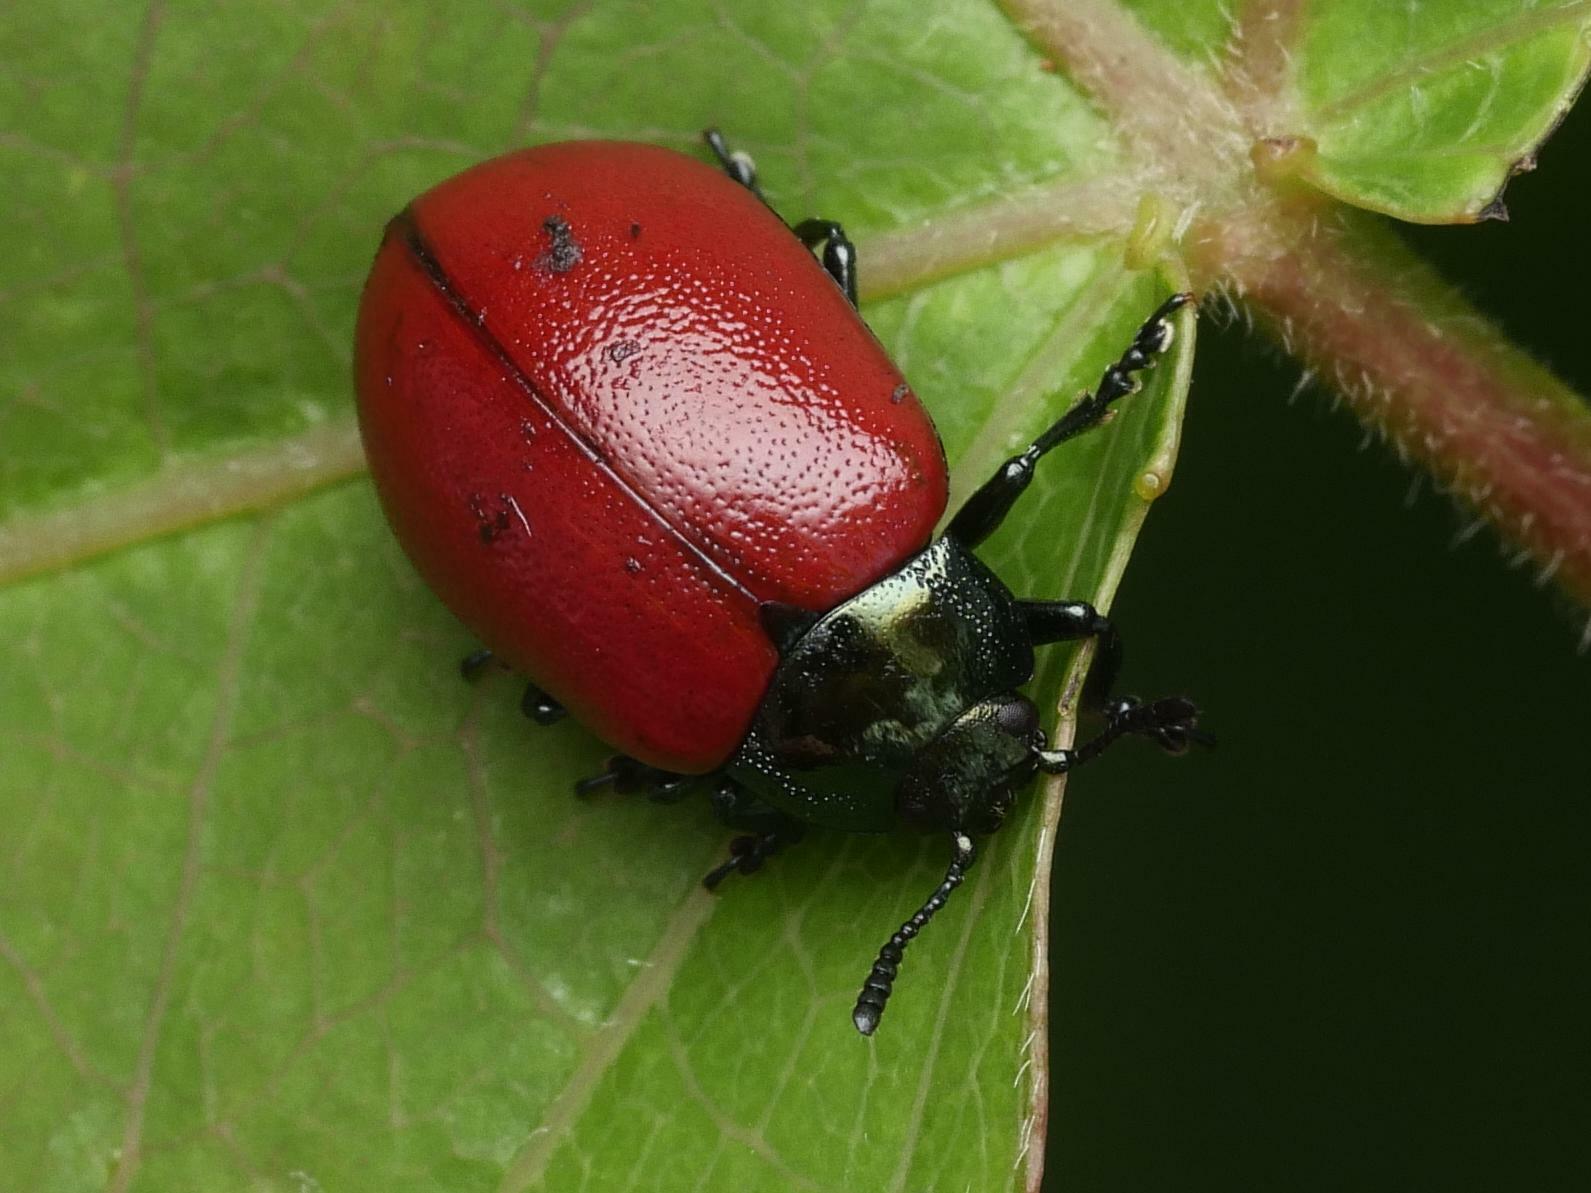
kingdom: Animalia
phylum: Arthropoda
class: Insecta
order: Coleoptera
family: Chrysomelidae
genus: Chrysomela
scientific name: Chrysomela populi
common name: Red poplar leaf beetle
